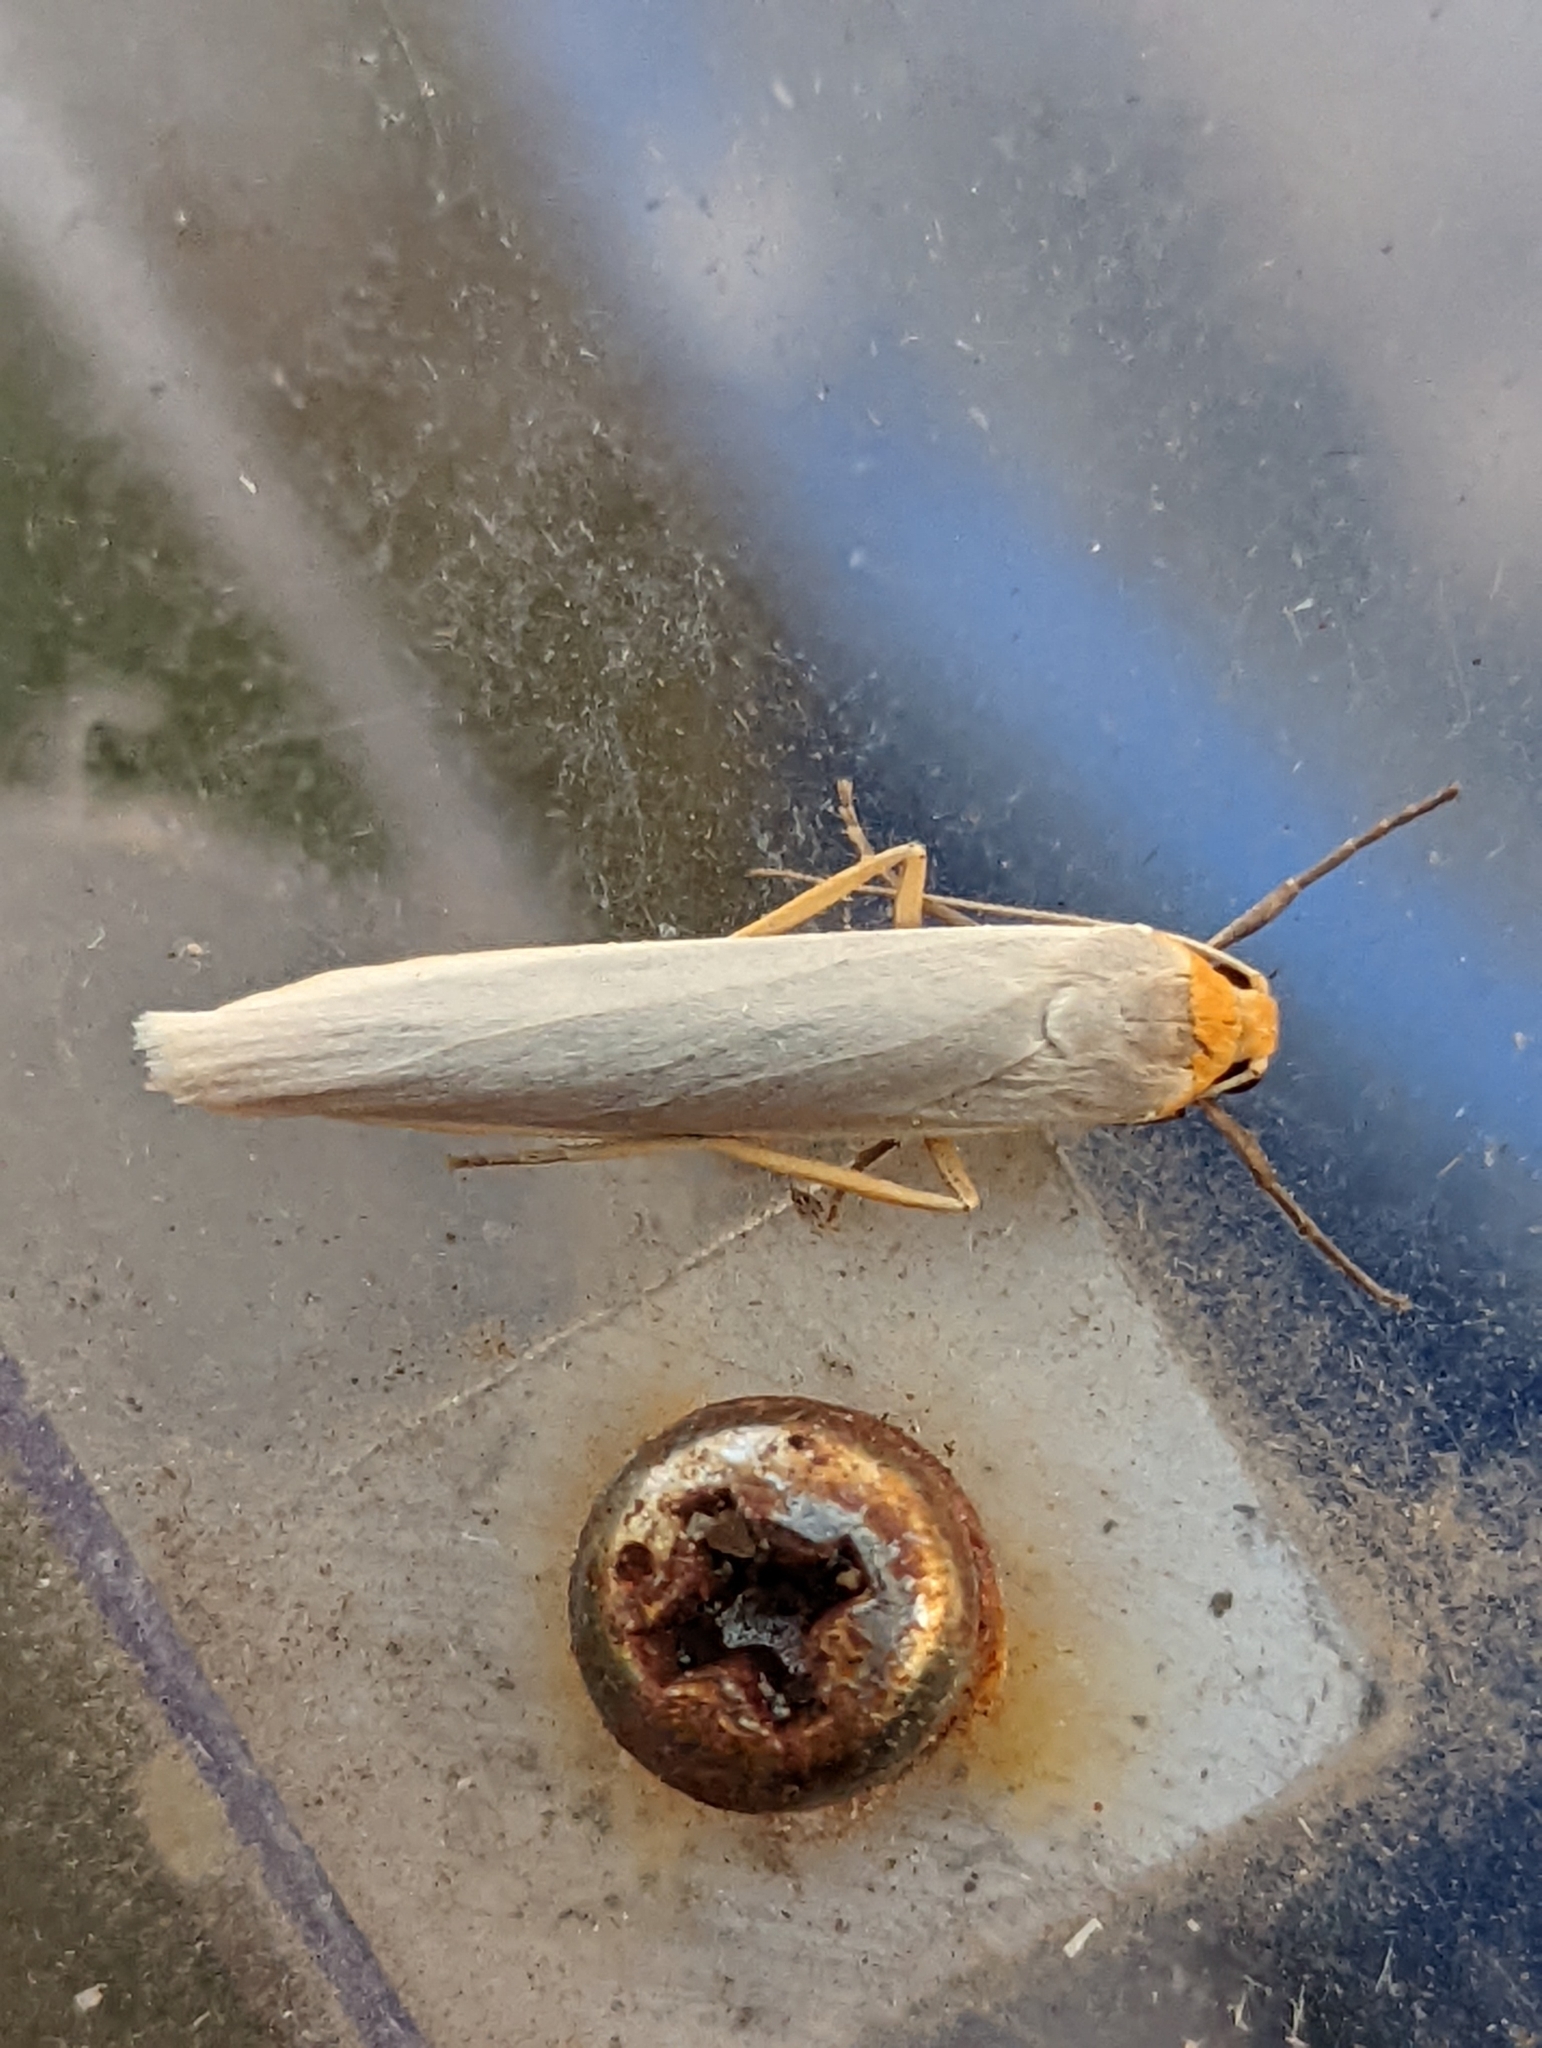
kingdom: Animalia
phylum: Arthropoda
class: Insecta
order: Lepidoptera
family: Erebidae
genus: Manulea
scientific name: Manulea complana
